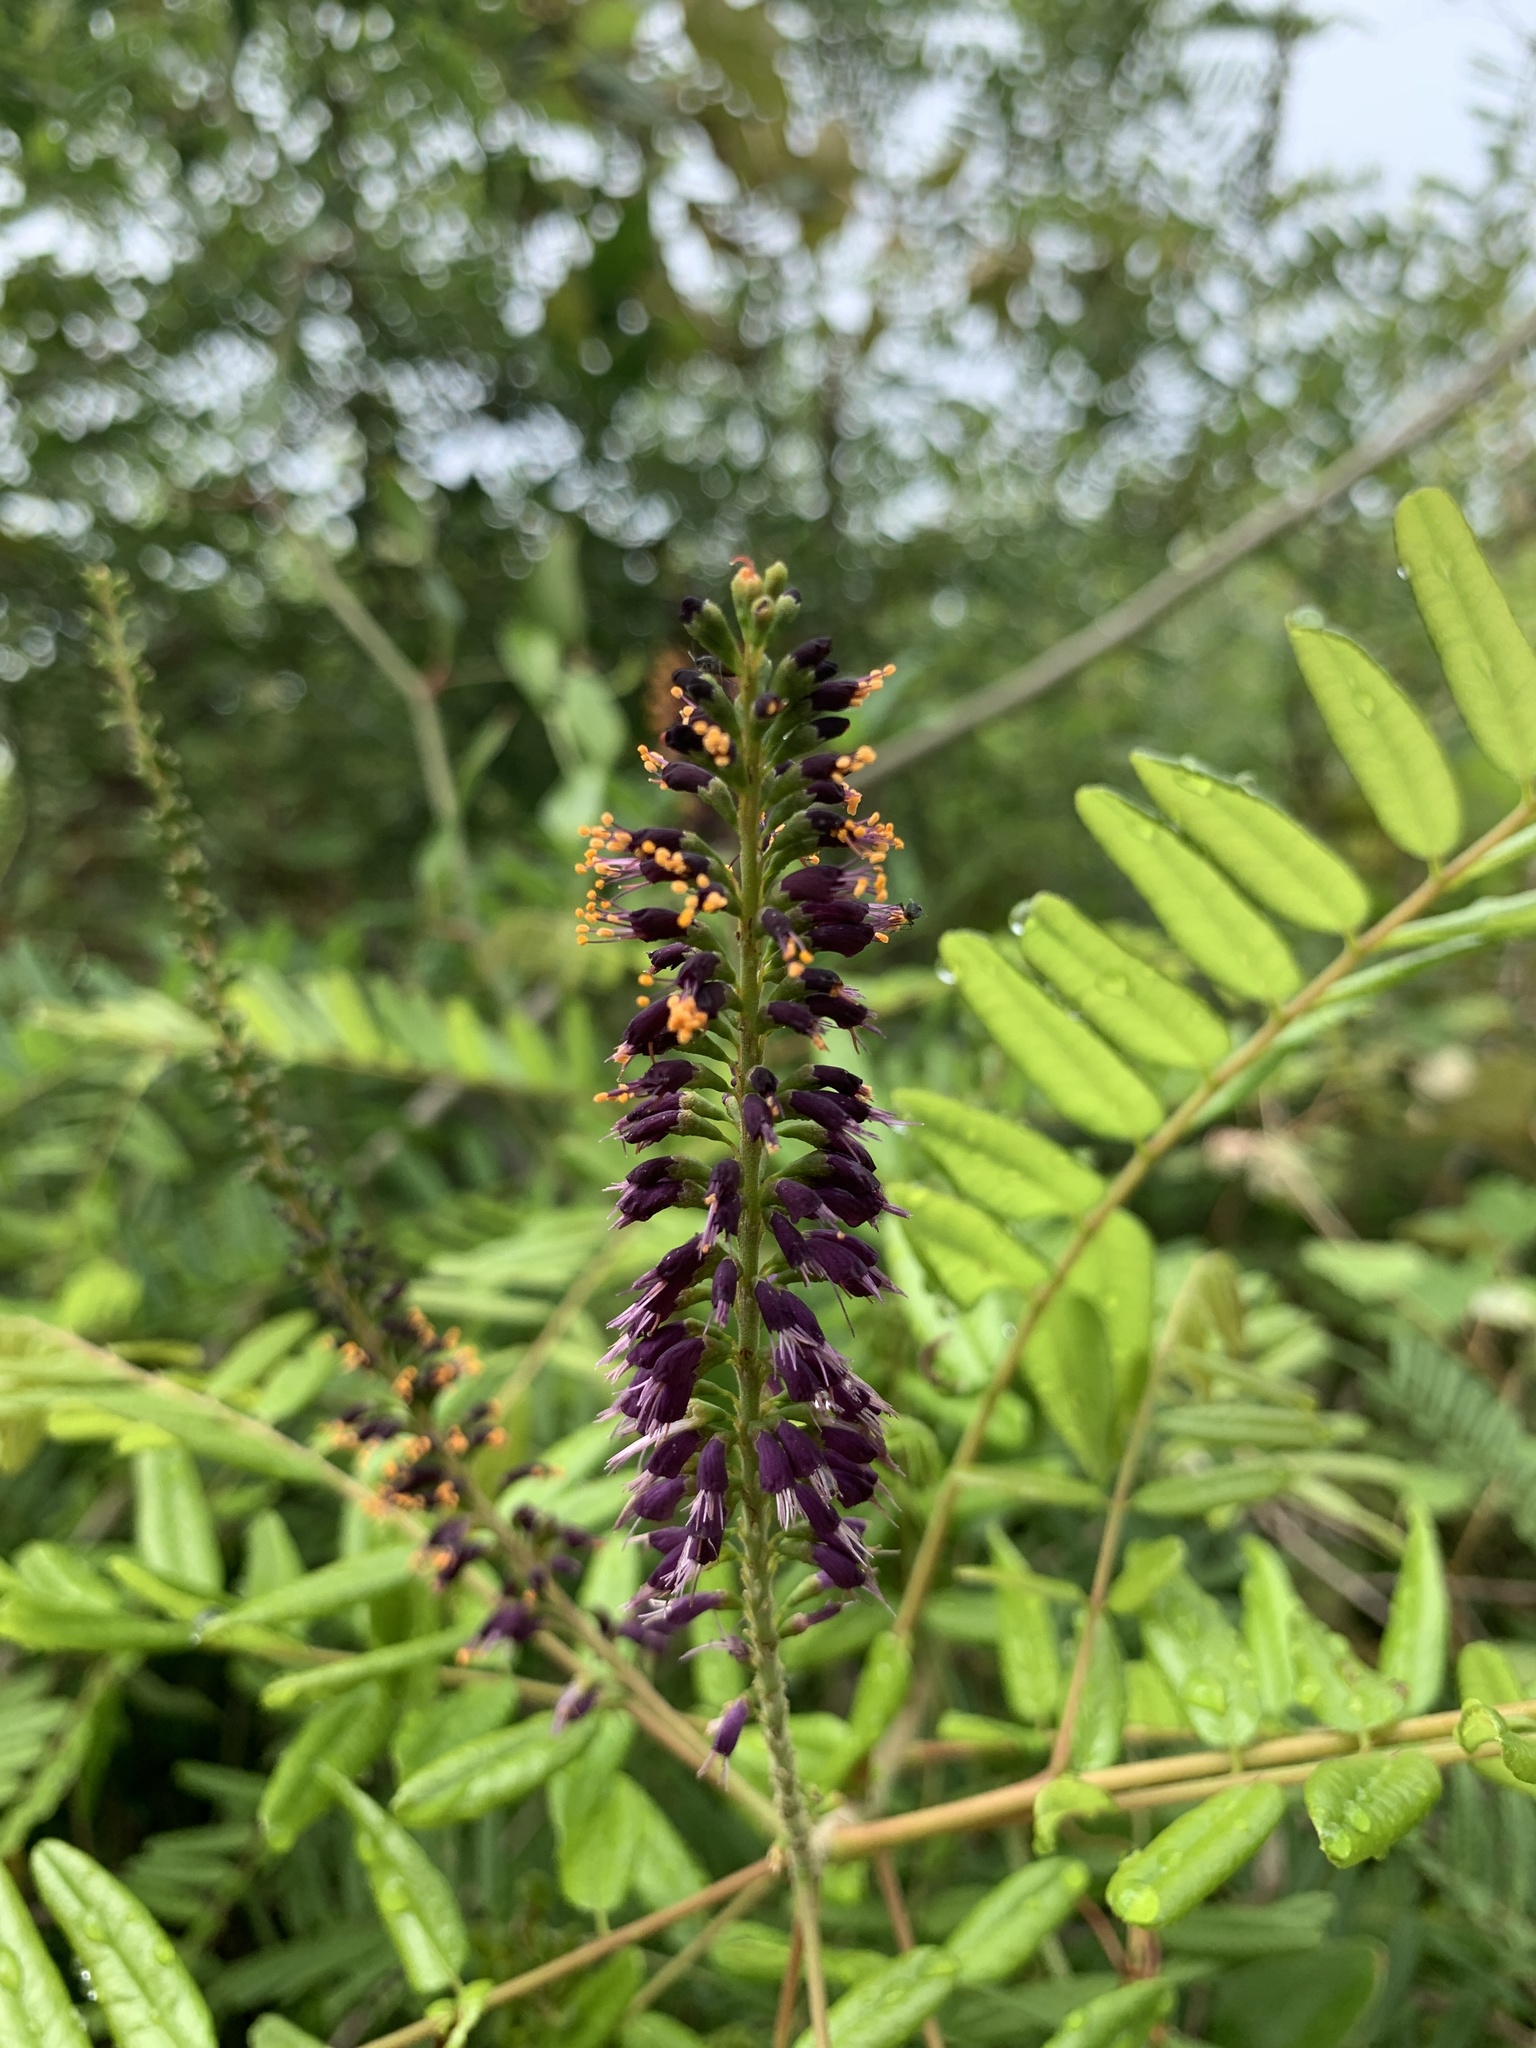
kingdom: Plantae
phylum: Tracheophyta
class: Magnoliopsida
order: Fabales
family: Fabaceae
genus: Amorpha
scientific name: Amorpha fruticosa
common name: False indigo
